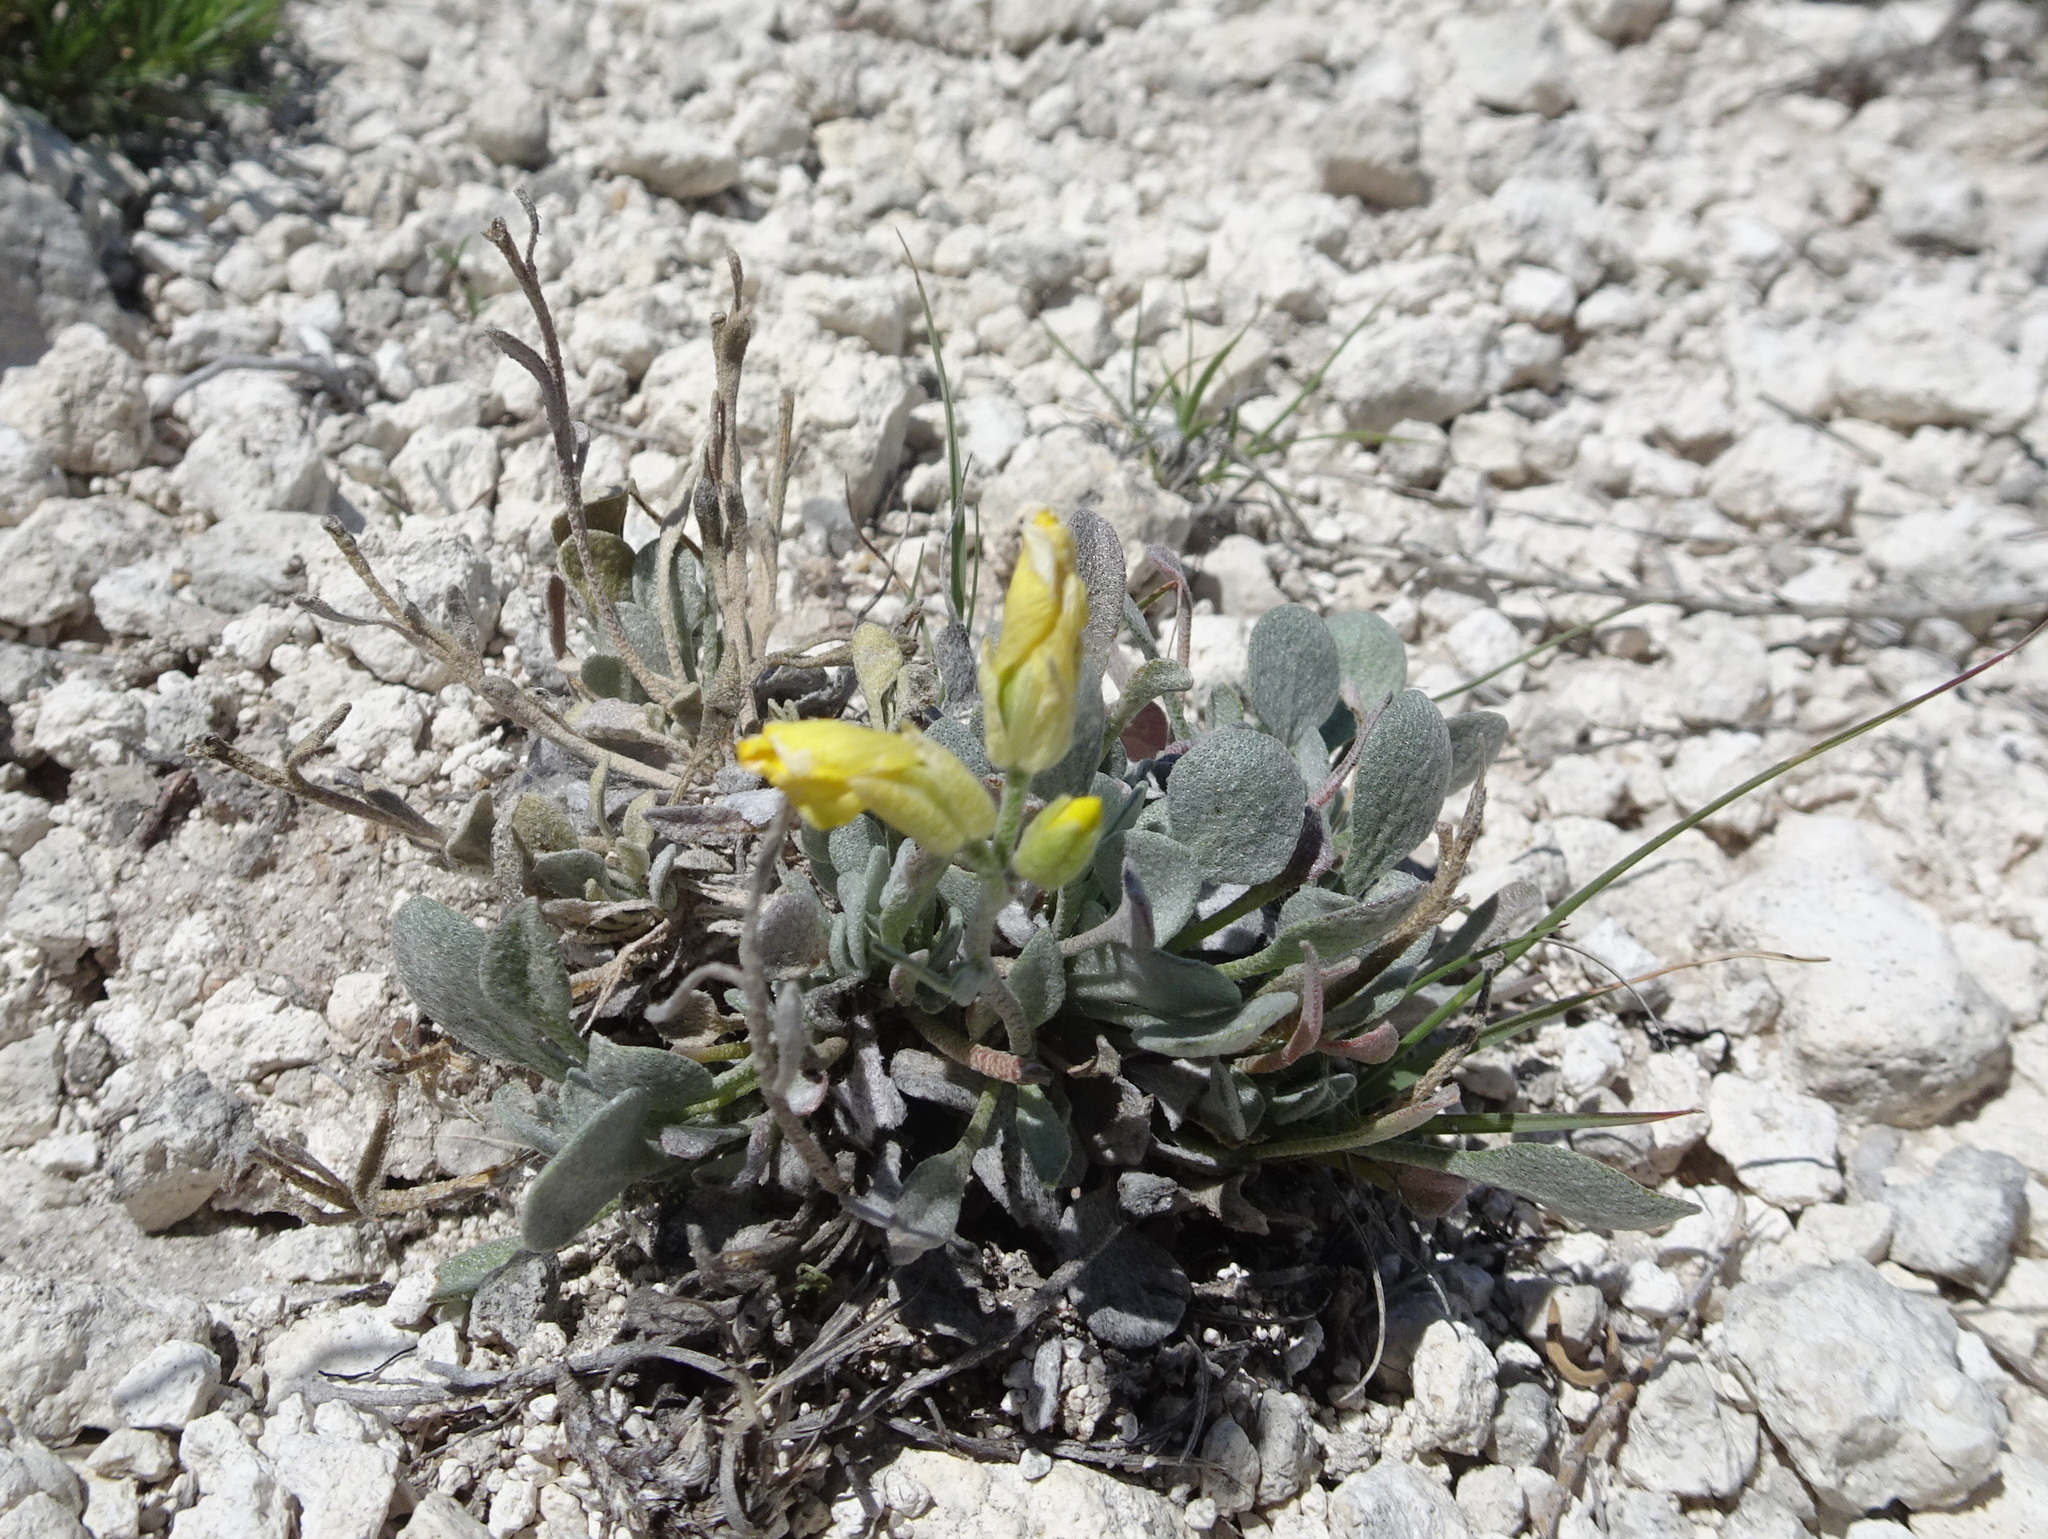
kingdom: Plantae
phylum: Tracheophyta
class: Magnoliopsida
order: Brassicales
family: Brassicaceae
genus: Physaria
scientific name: Physaria ovalifolia
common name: Round-leaf bladderpod
